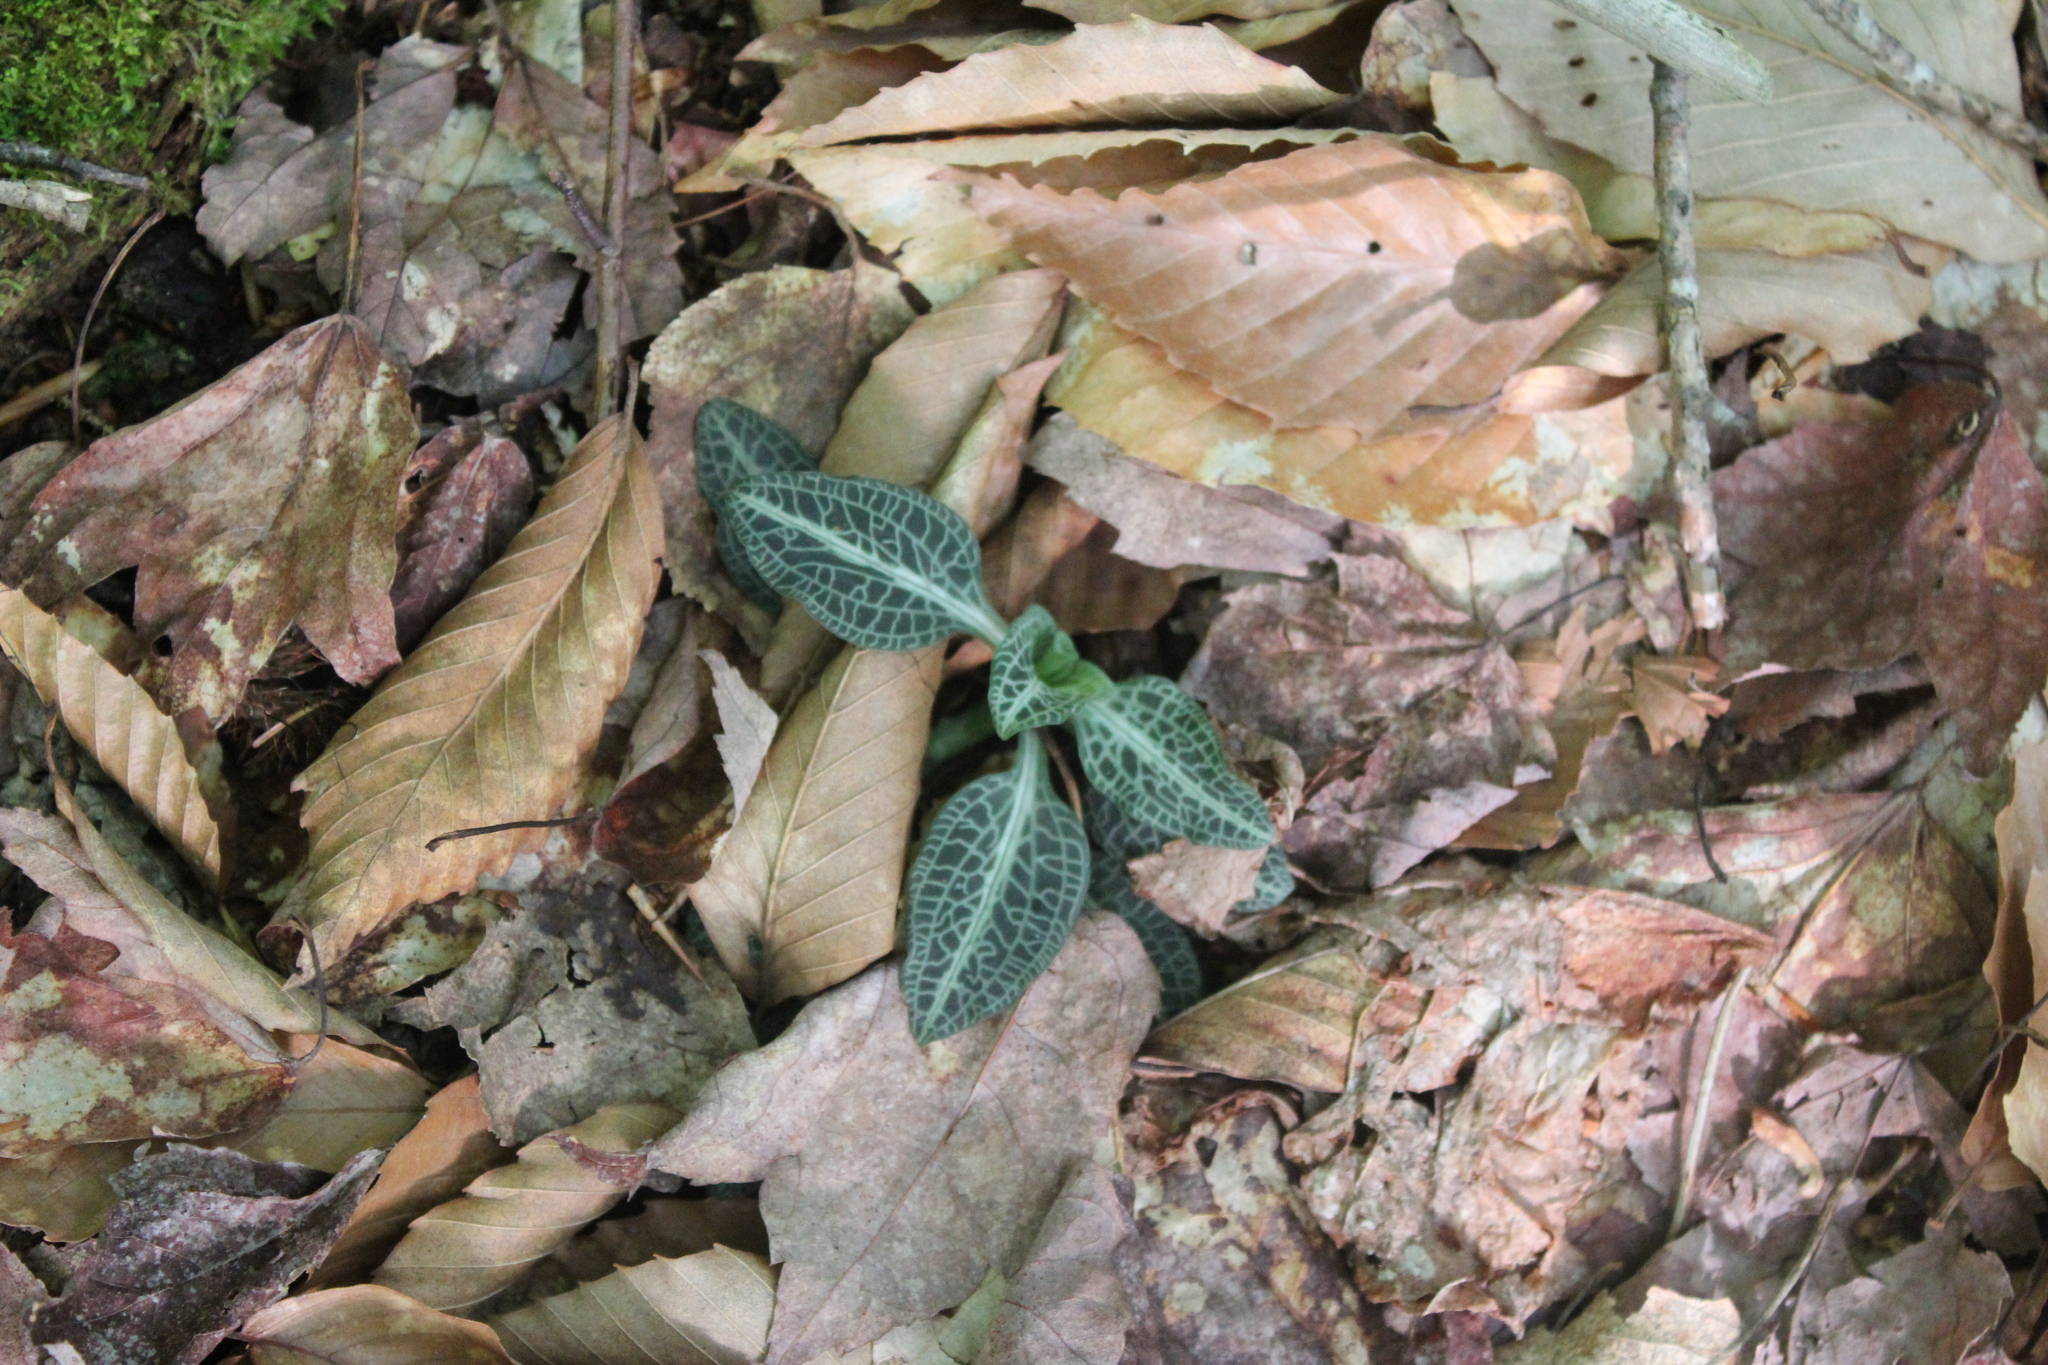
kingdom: Plantae
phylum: Tracheophyta
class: Liliopsida
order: Asparagales
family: Orchidaceae
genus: Goodyera
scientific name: Goodyera pubescens
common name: Downy rattlesnake-plantain
